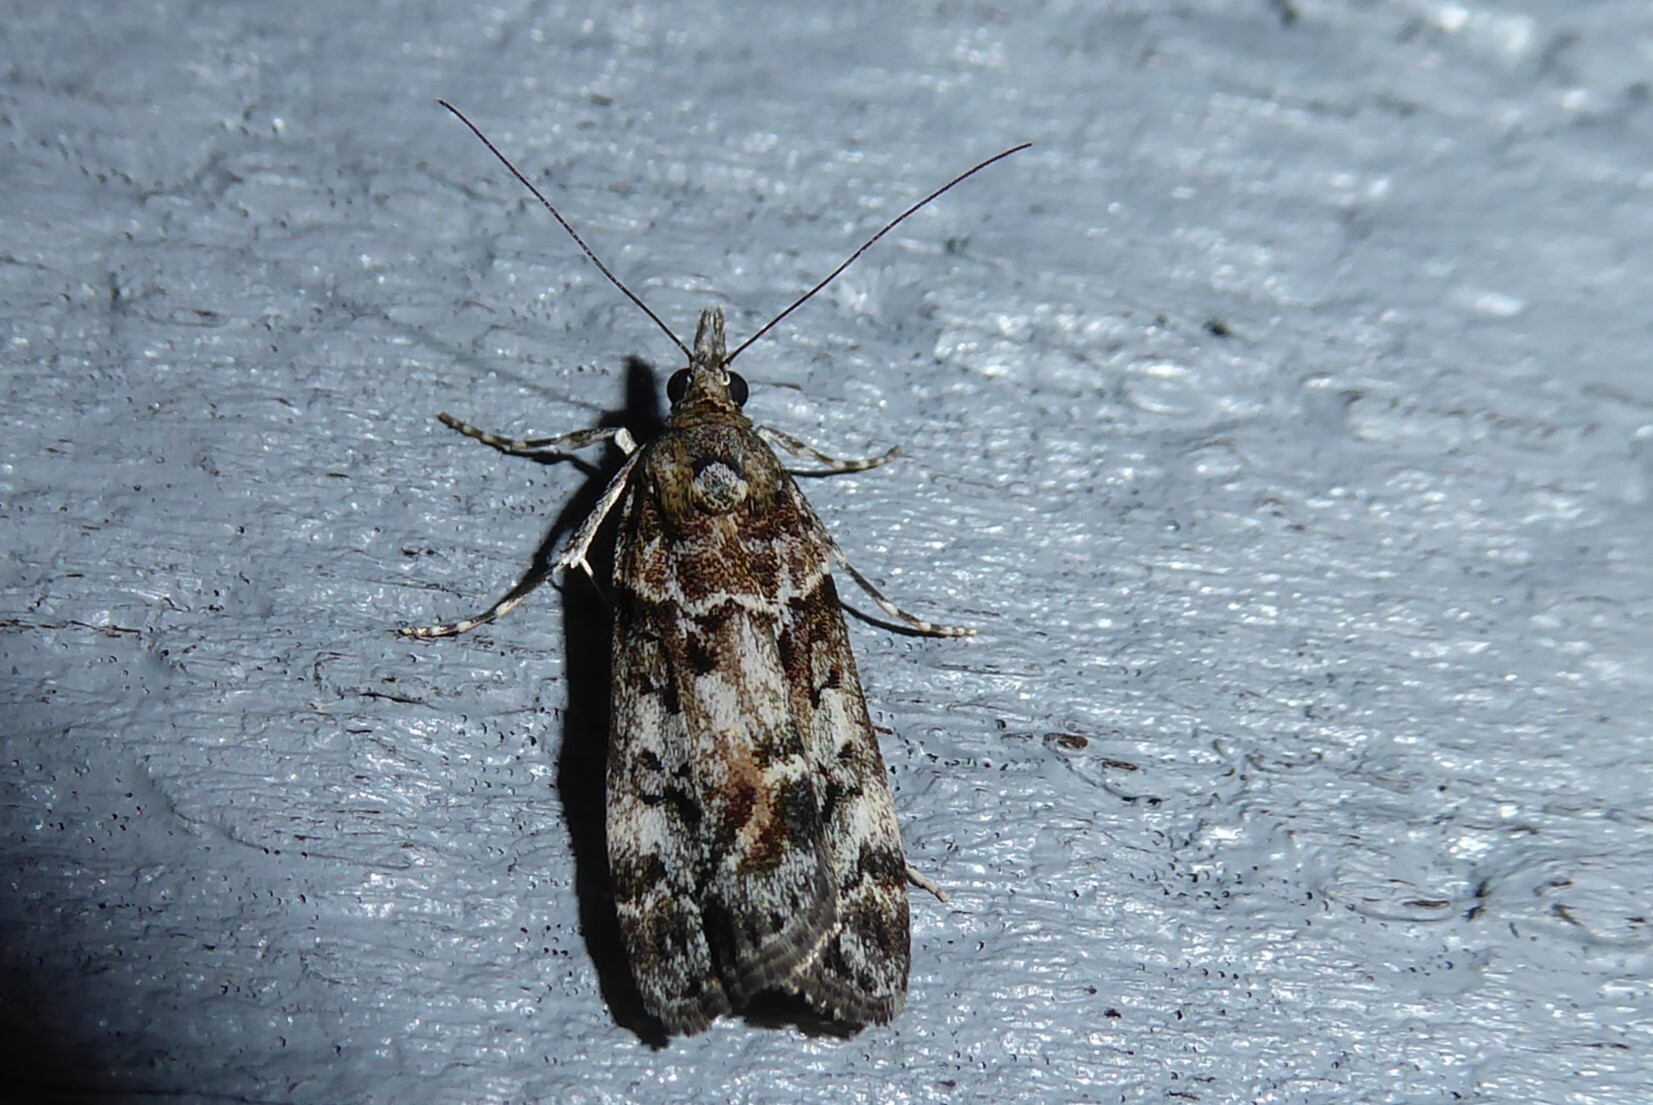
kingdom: Animalia
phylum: Arthropoda
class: Insecta
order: Lepidoptera
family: Crambidae
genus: Eudonia
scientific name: Eudonia submarginalis
